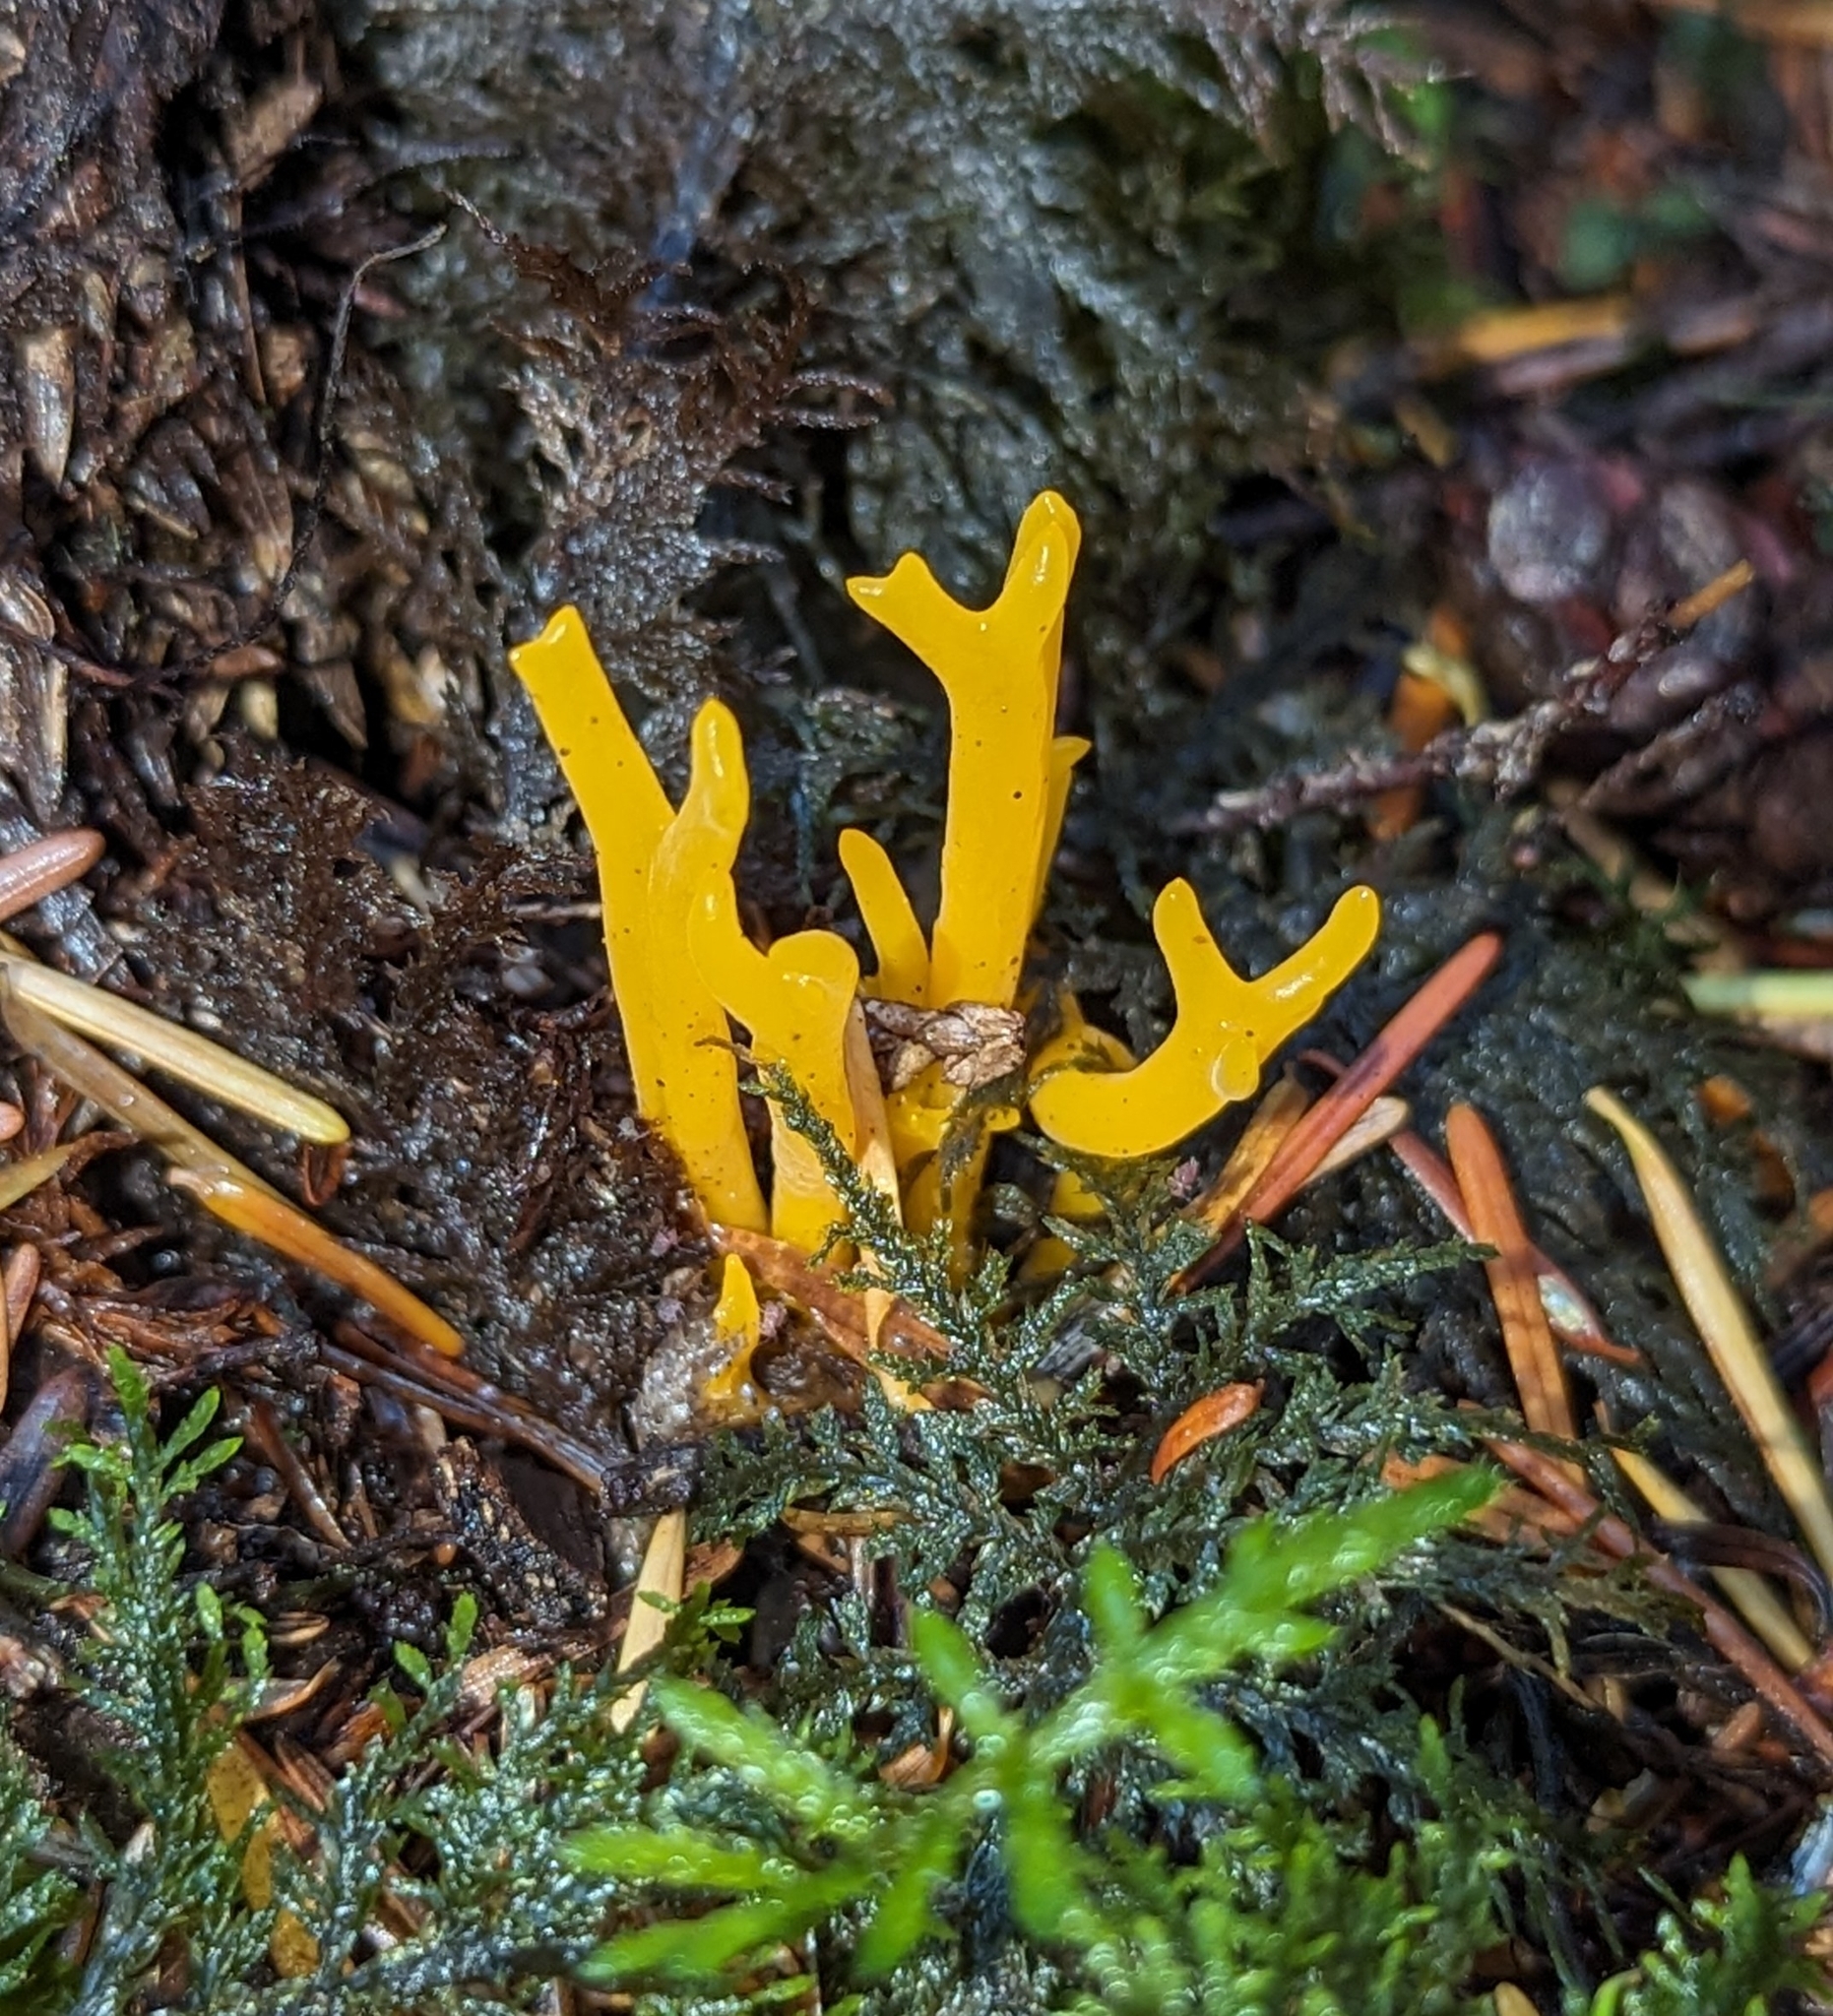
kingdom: Fungi
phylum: Basidiomycota
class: Dacrymycetes
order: Dacrymycetales
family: Dacrymycetaceae
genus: Calocera
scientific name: Calocera viscosa
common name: Yellow stagshorn
